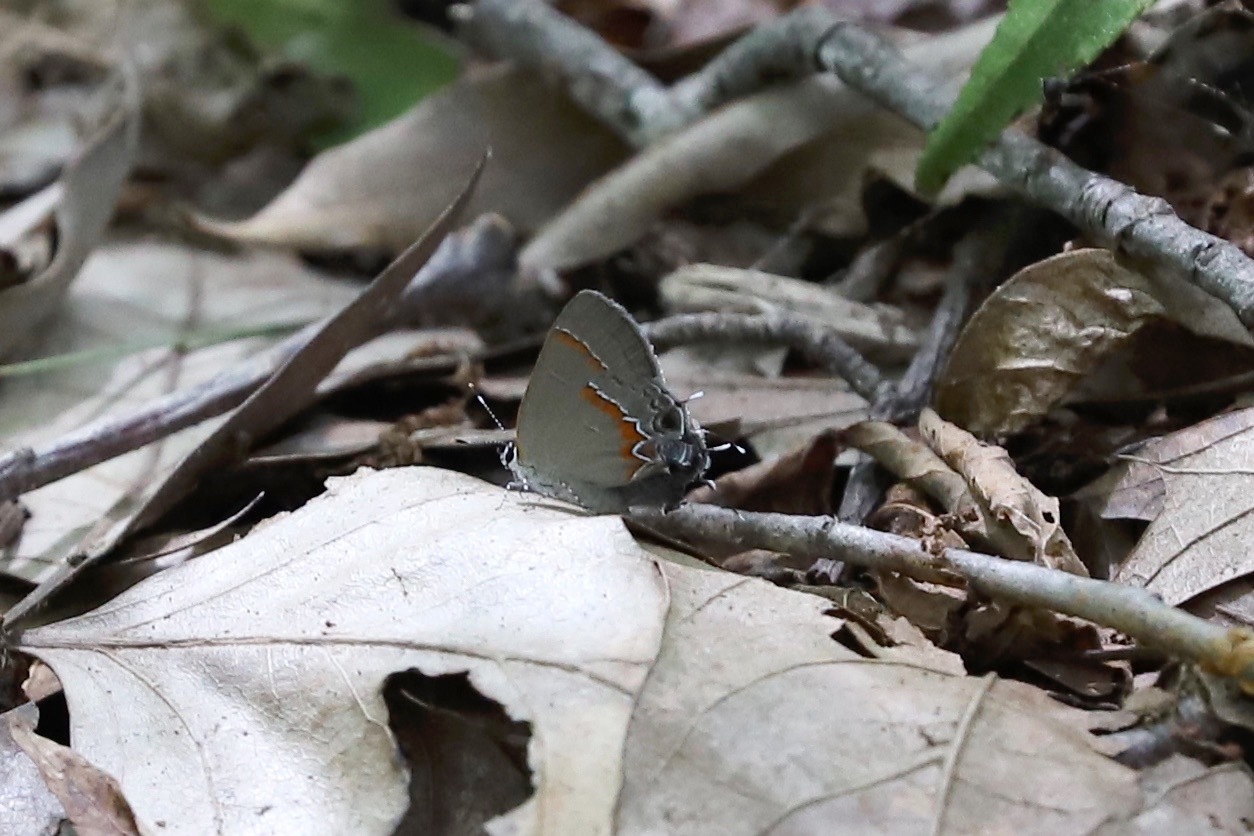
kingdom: Animalia
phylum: Arthropoda
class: Insecta
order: Lepidoptera
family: Lycaenidae
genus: Calycopis
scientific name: Calycopis cecrops
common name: Red-banded hairstreak
